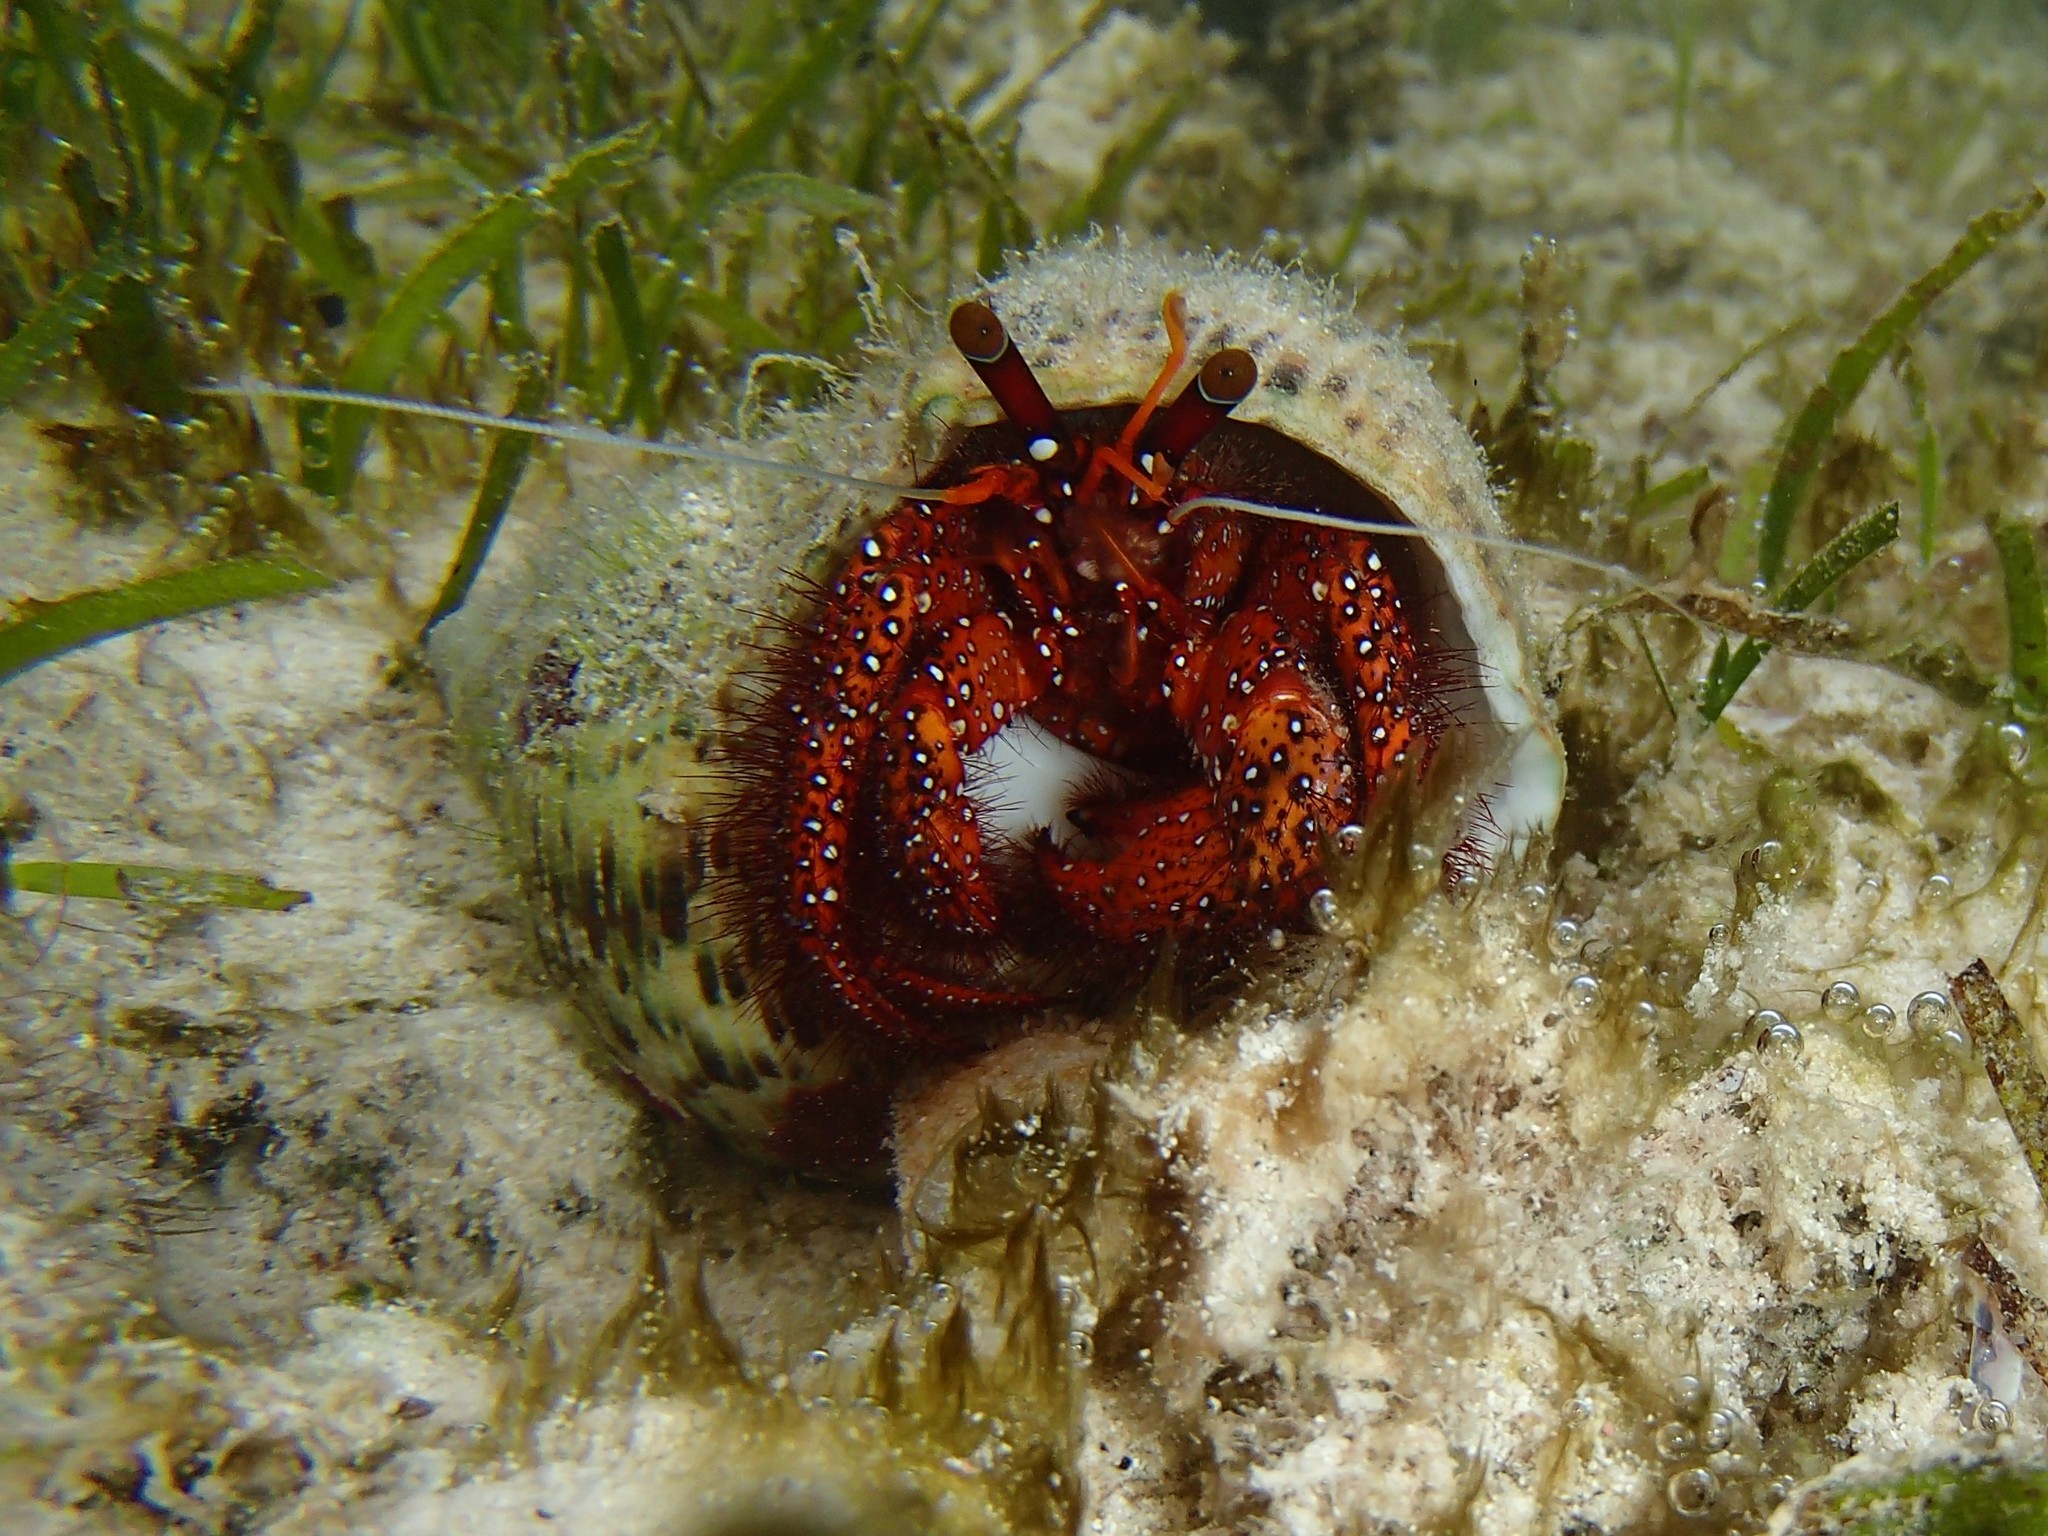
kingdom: Animalia
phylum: Arthropoda
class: Malacostraca
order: Decapoda
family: Diogenidae
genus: Dardanus
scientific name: Dardanus megistos
